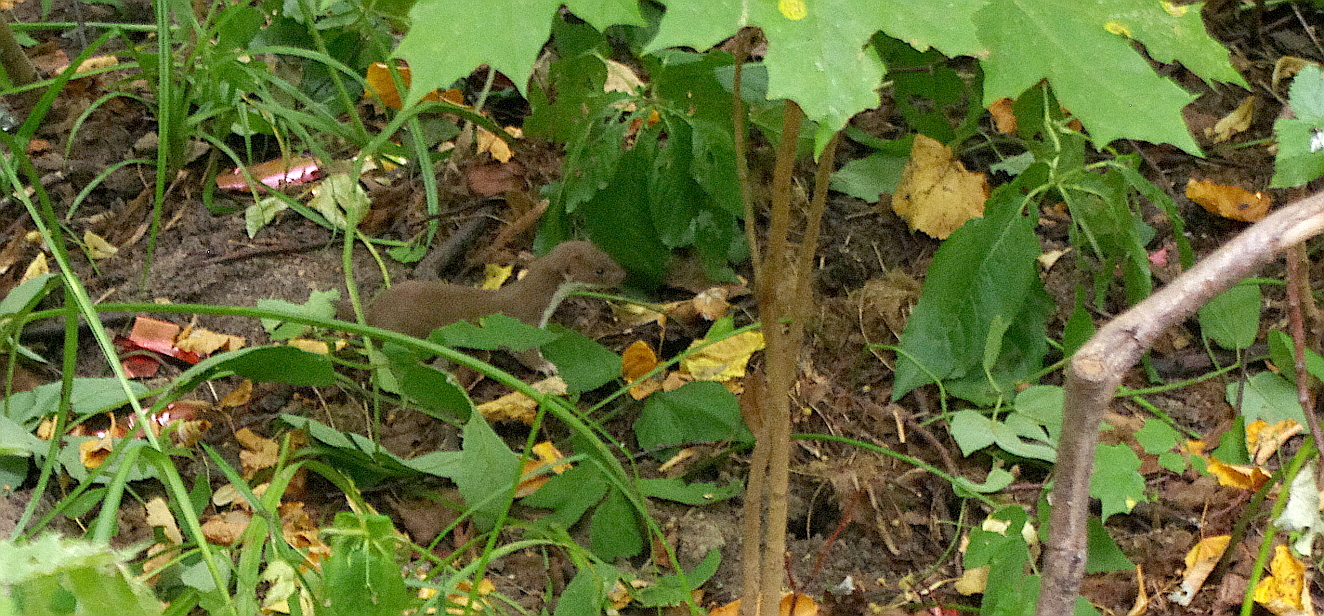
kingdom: Animalia
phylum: Chordata
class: Mammalia
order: Carnivora
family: Mustelidae
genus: Mustela
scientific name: Mustela nivalis
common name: Least weasel
